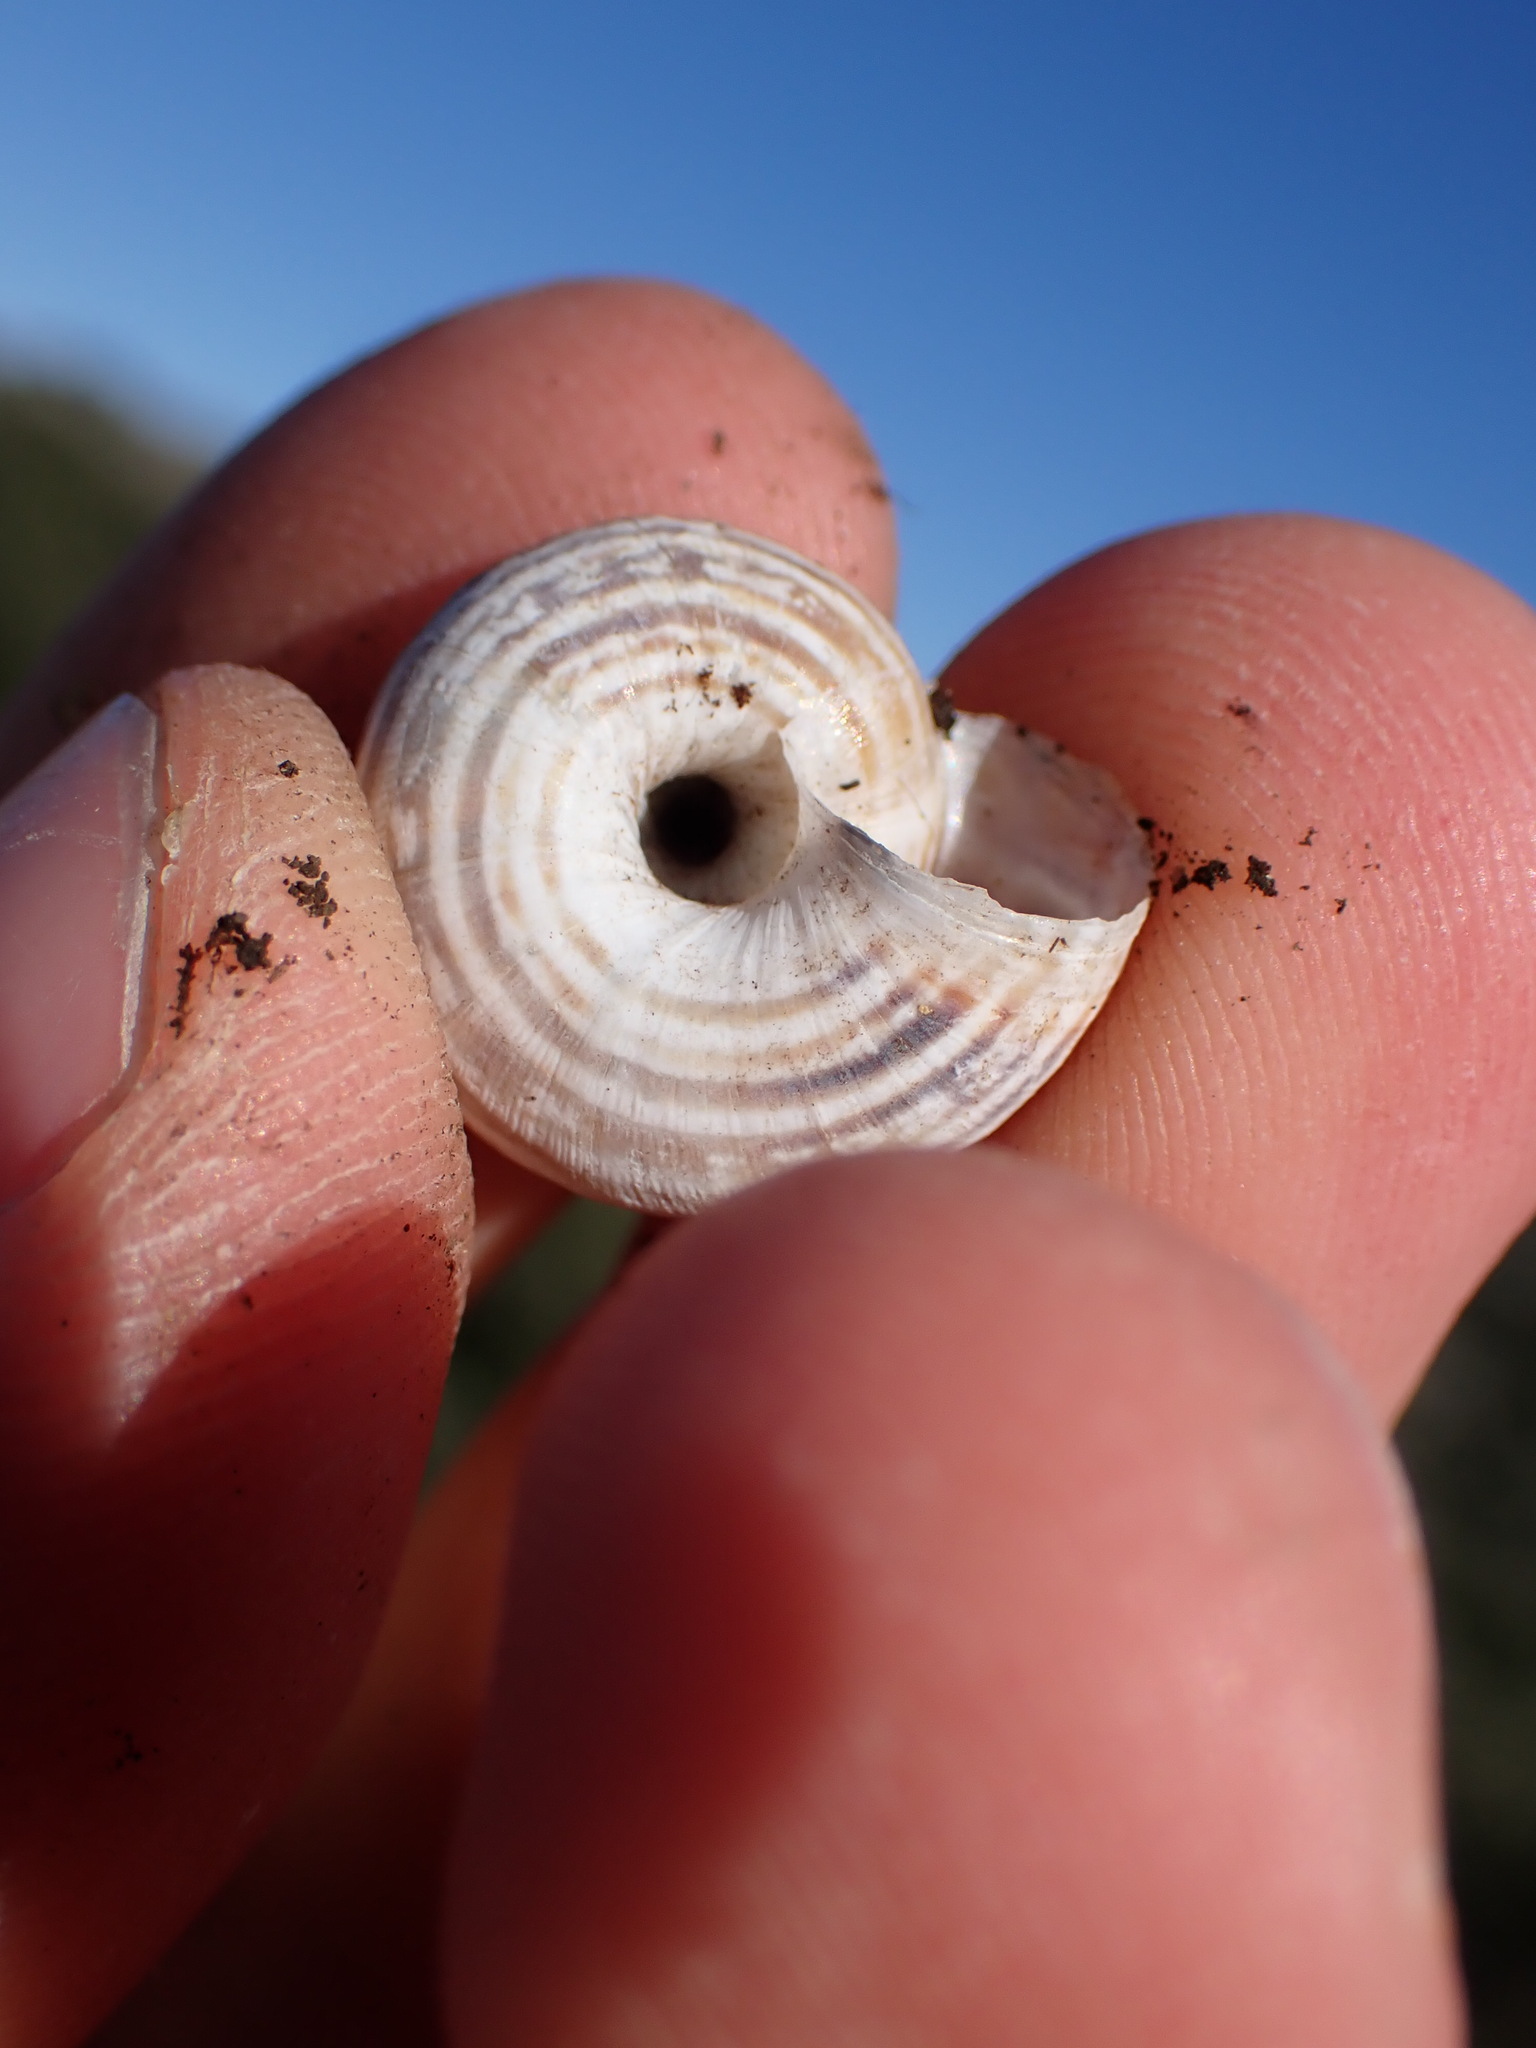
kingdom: Animalia
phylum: Mollusca
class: Gastropoda
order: Stylommatophora
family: Geomitridae
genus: Xerosecta
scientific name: Xerosecta cespitum
